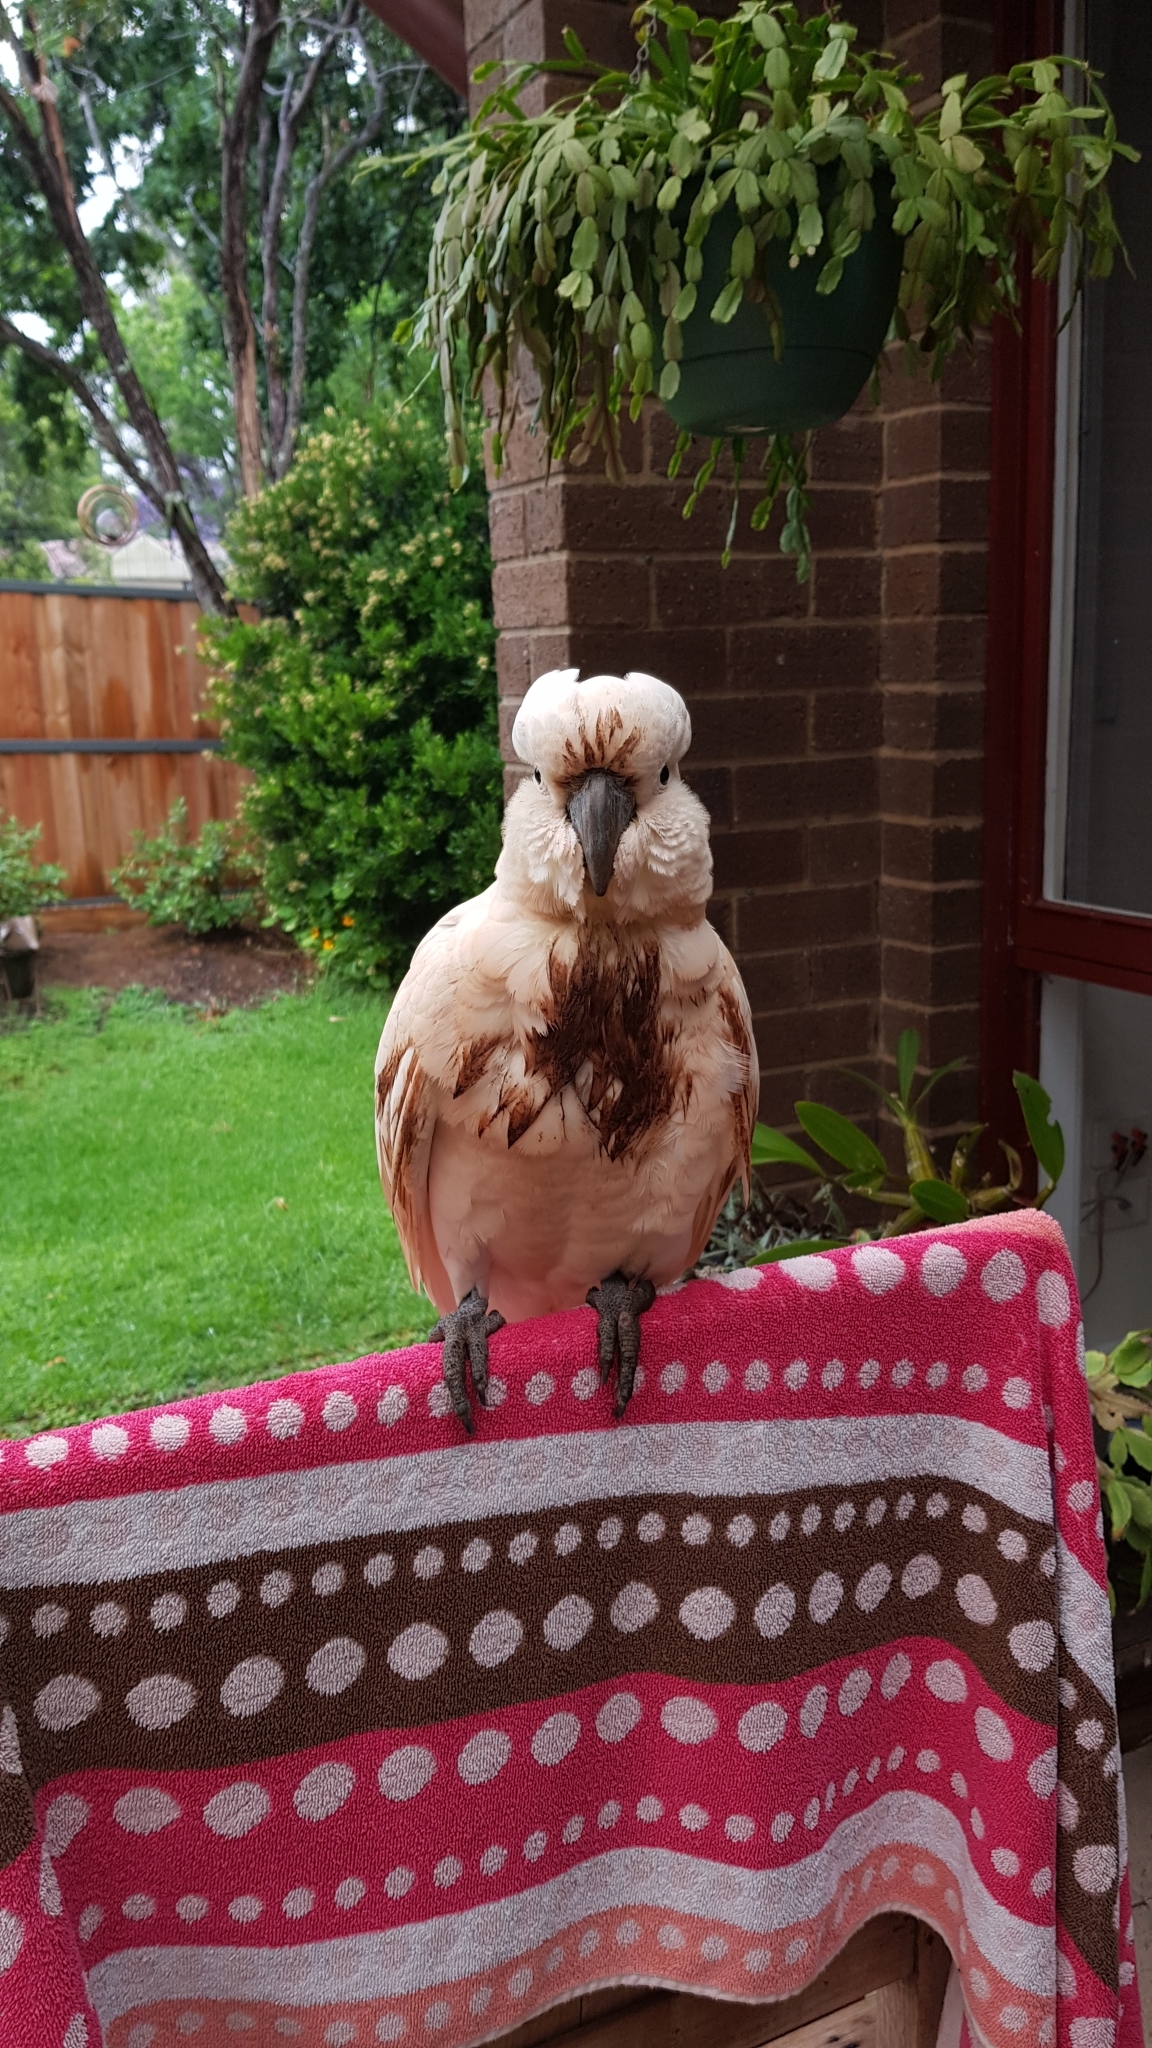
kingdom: Animalia
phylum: Chordata
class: Aves
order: Psittaciformes
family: Psittacidae
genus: Cacatua
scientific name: Cacatua galerita
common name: Sulphur-crested cockatoo
